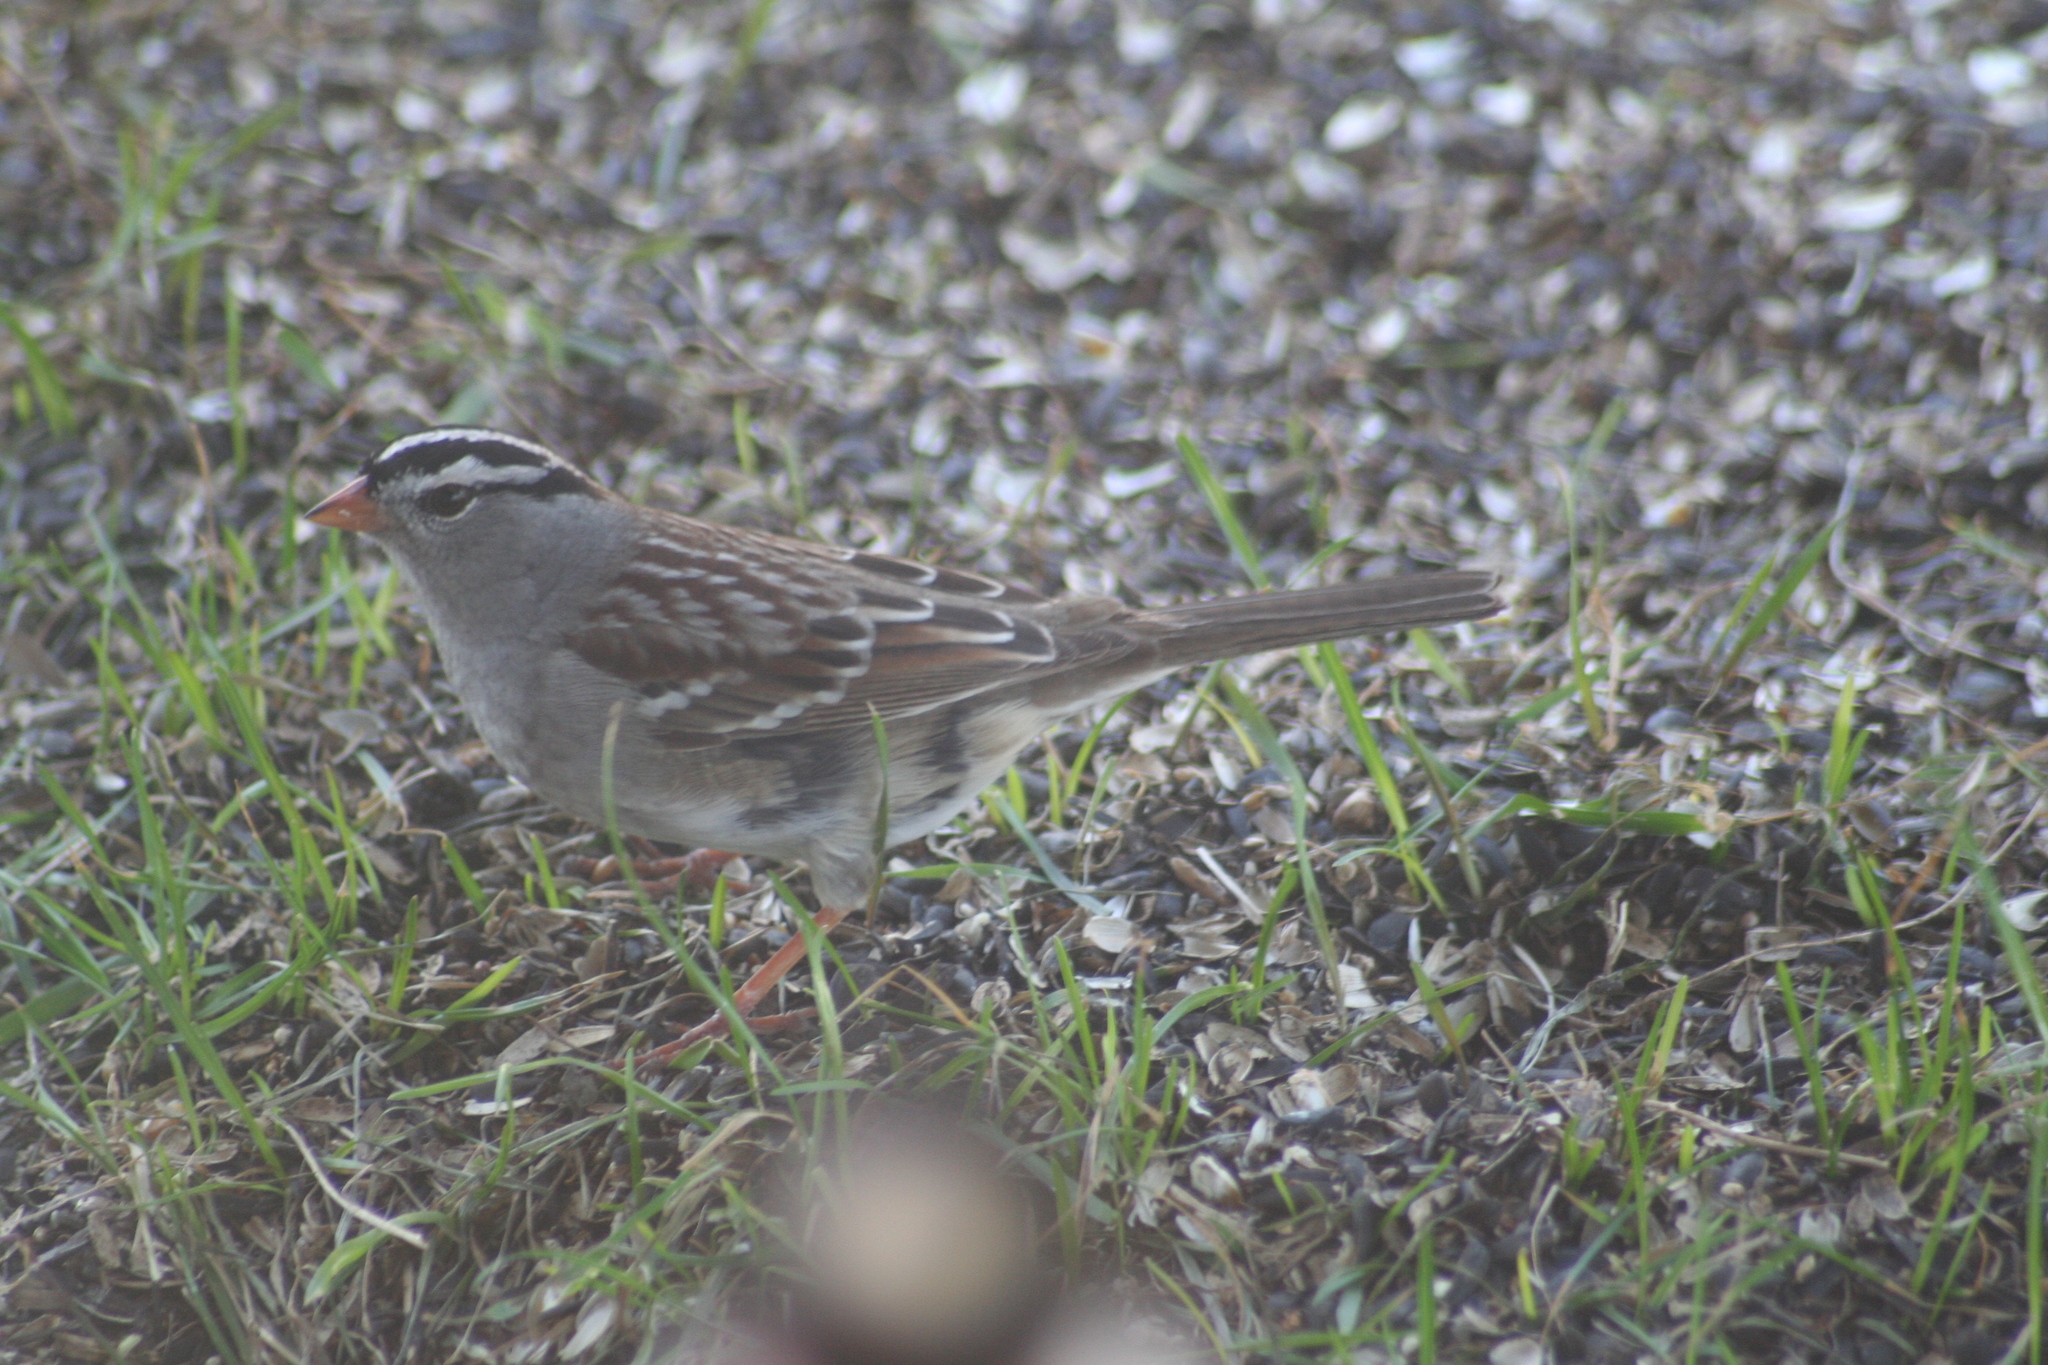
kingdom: Animalia
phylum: Chordata
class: Aves
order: Passeriformes
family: Passerellidae
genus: Zonotrichia
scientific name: Zonotrichia leucophrys
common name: White-crowned sparrow
